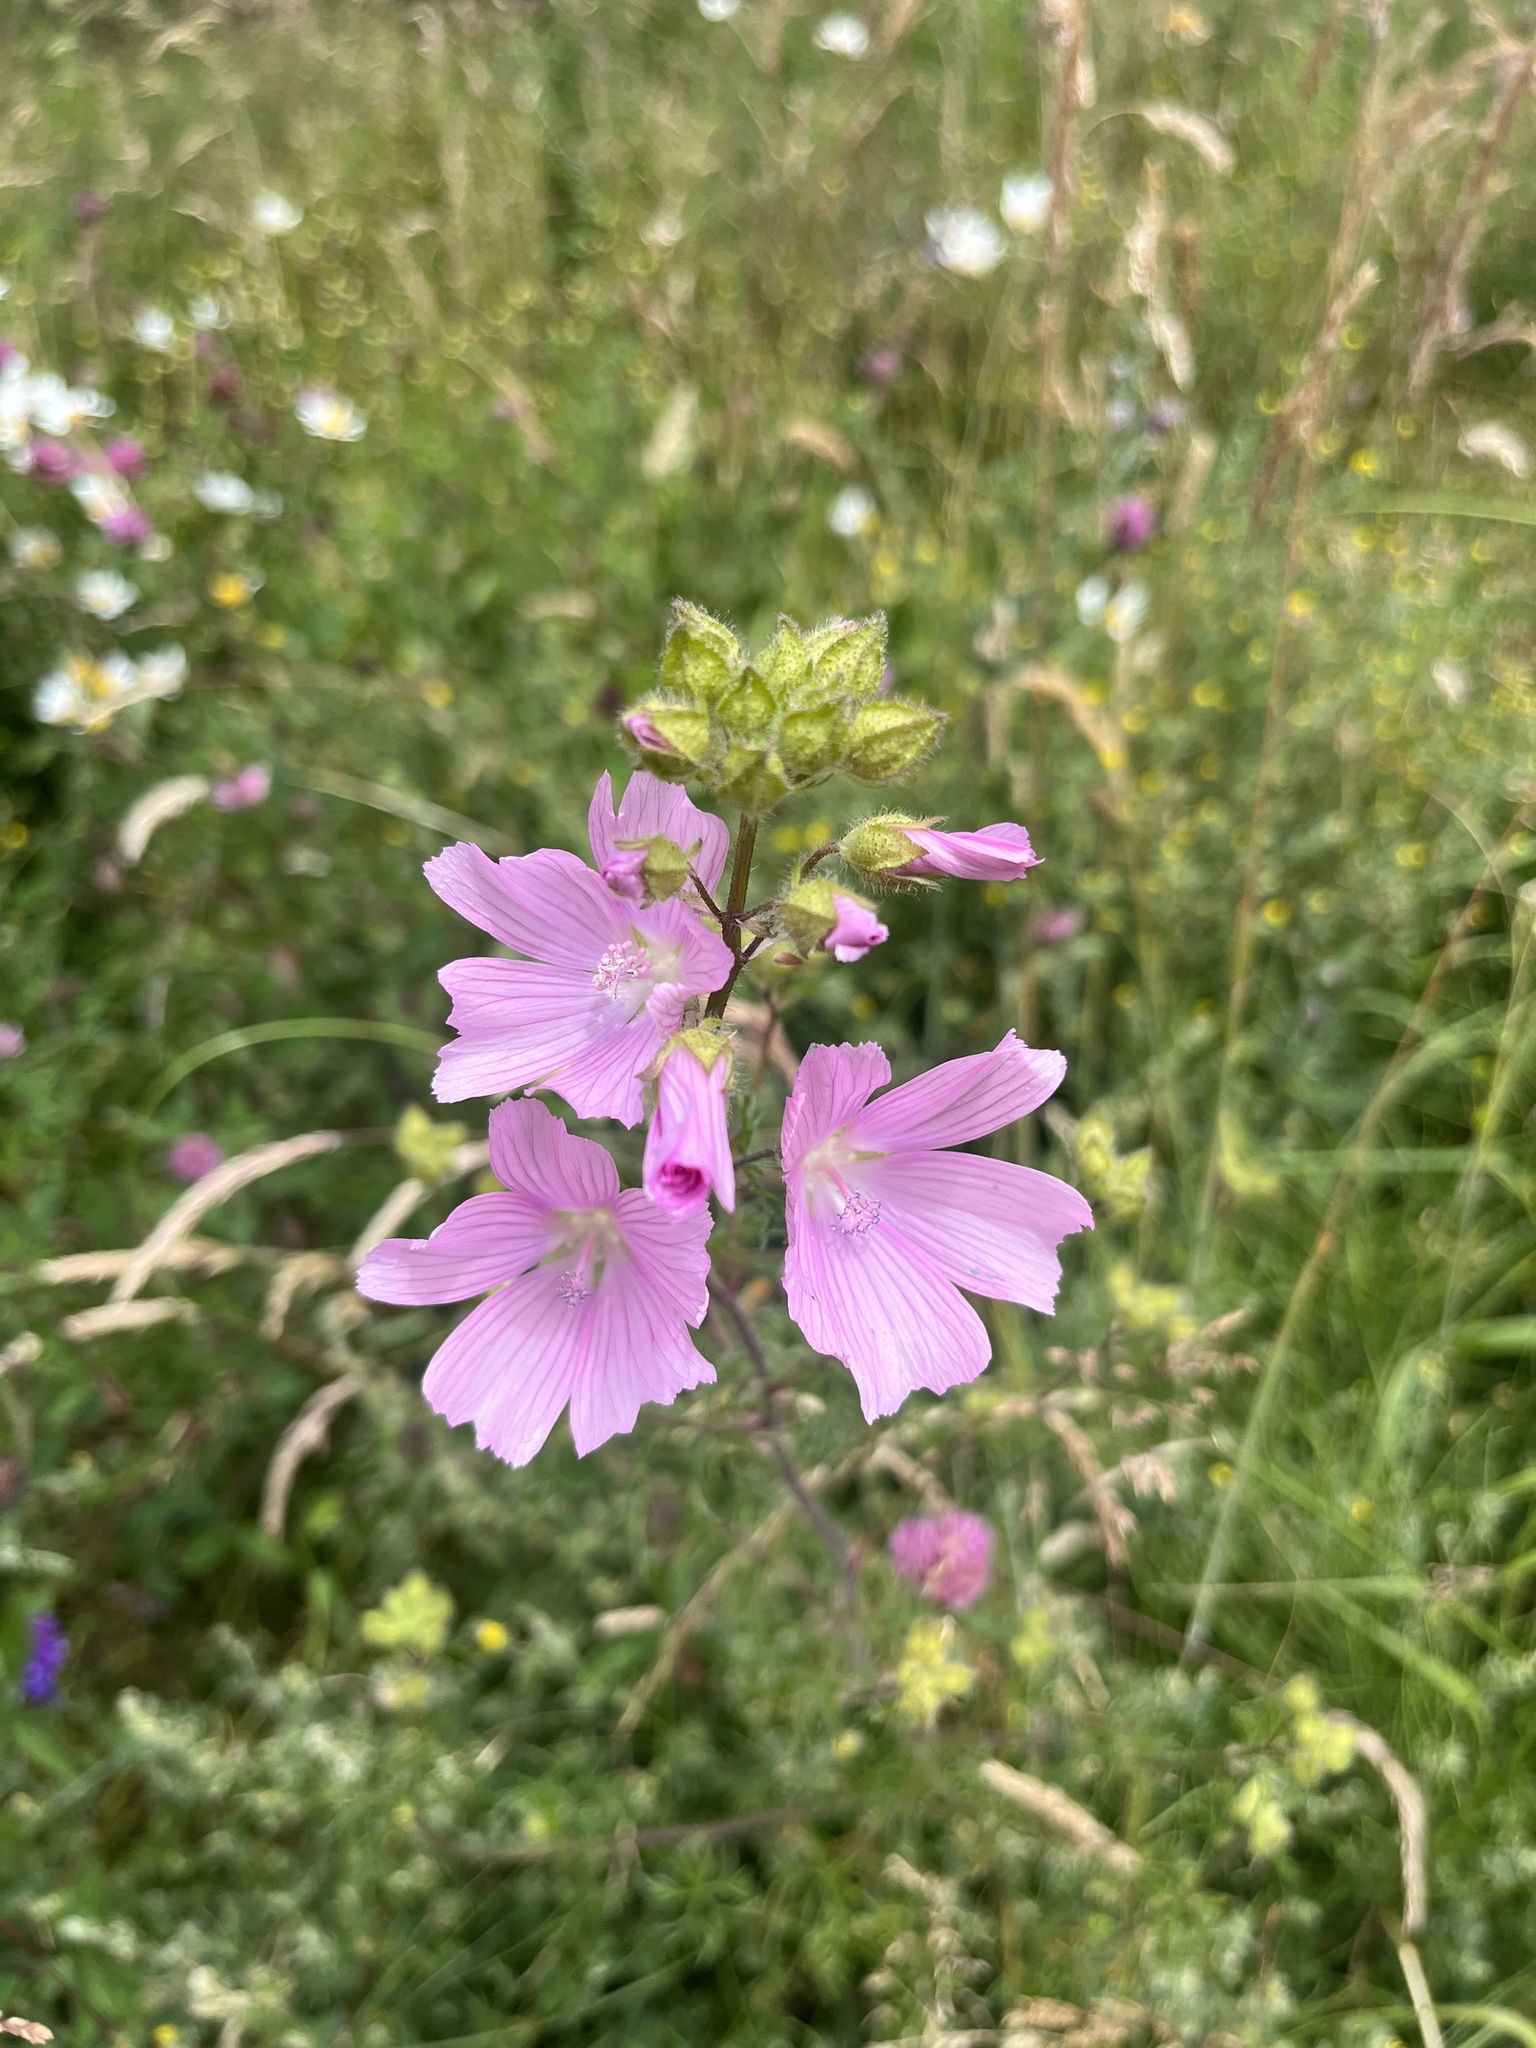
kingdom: Plantae
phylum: Tracheophyta
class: Magnoliopsida
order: Malvales
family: Malvaceae
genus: Malva
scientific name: Malva moschata
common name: Musk mallow
